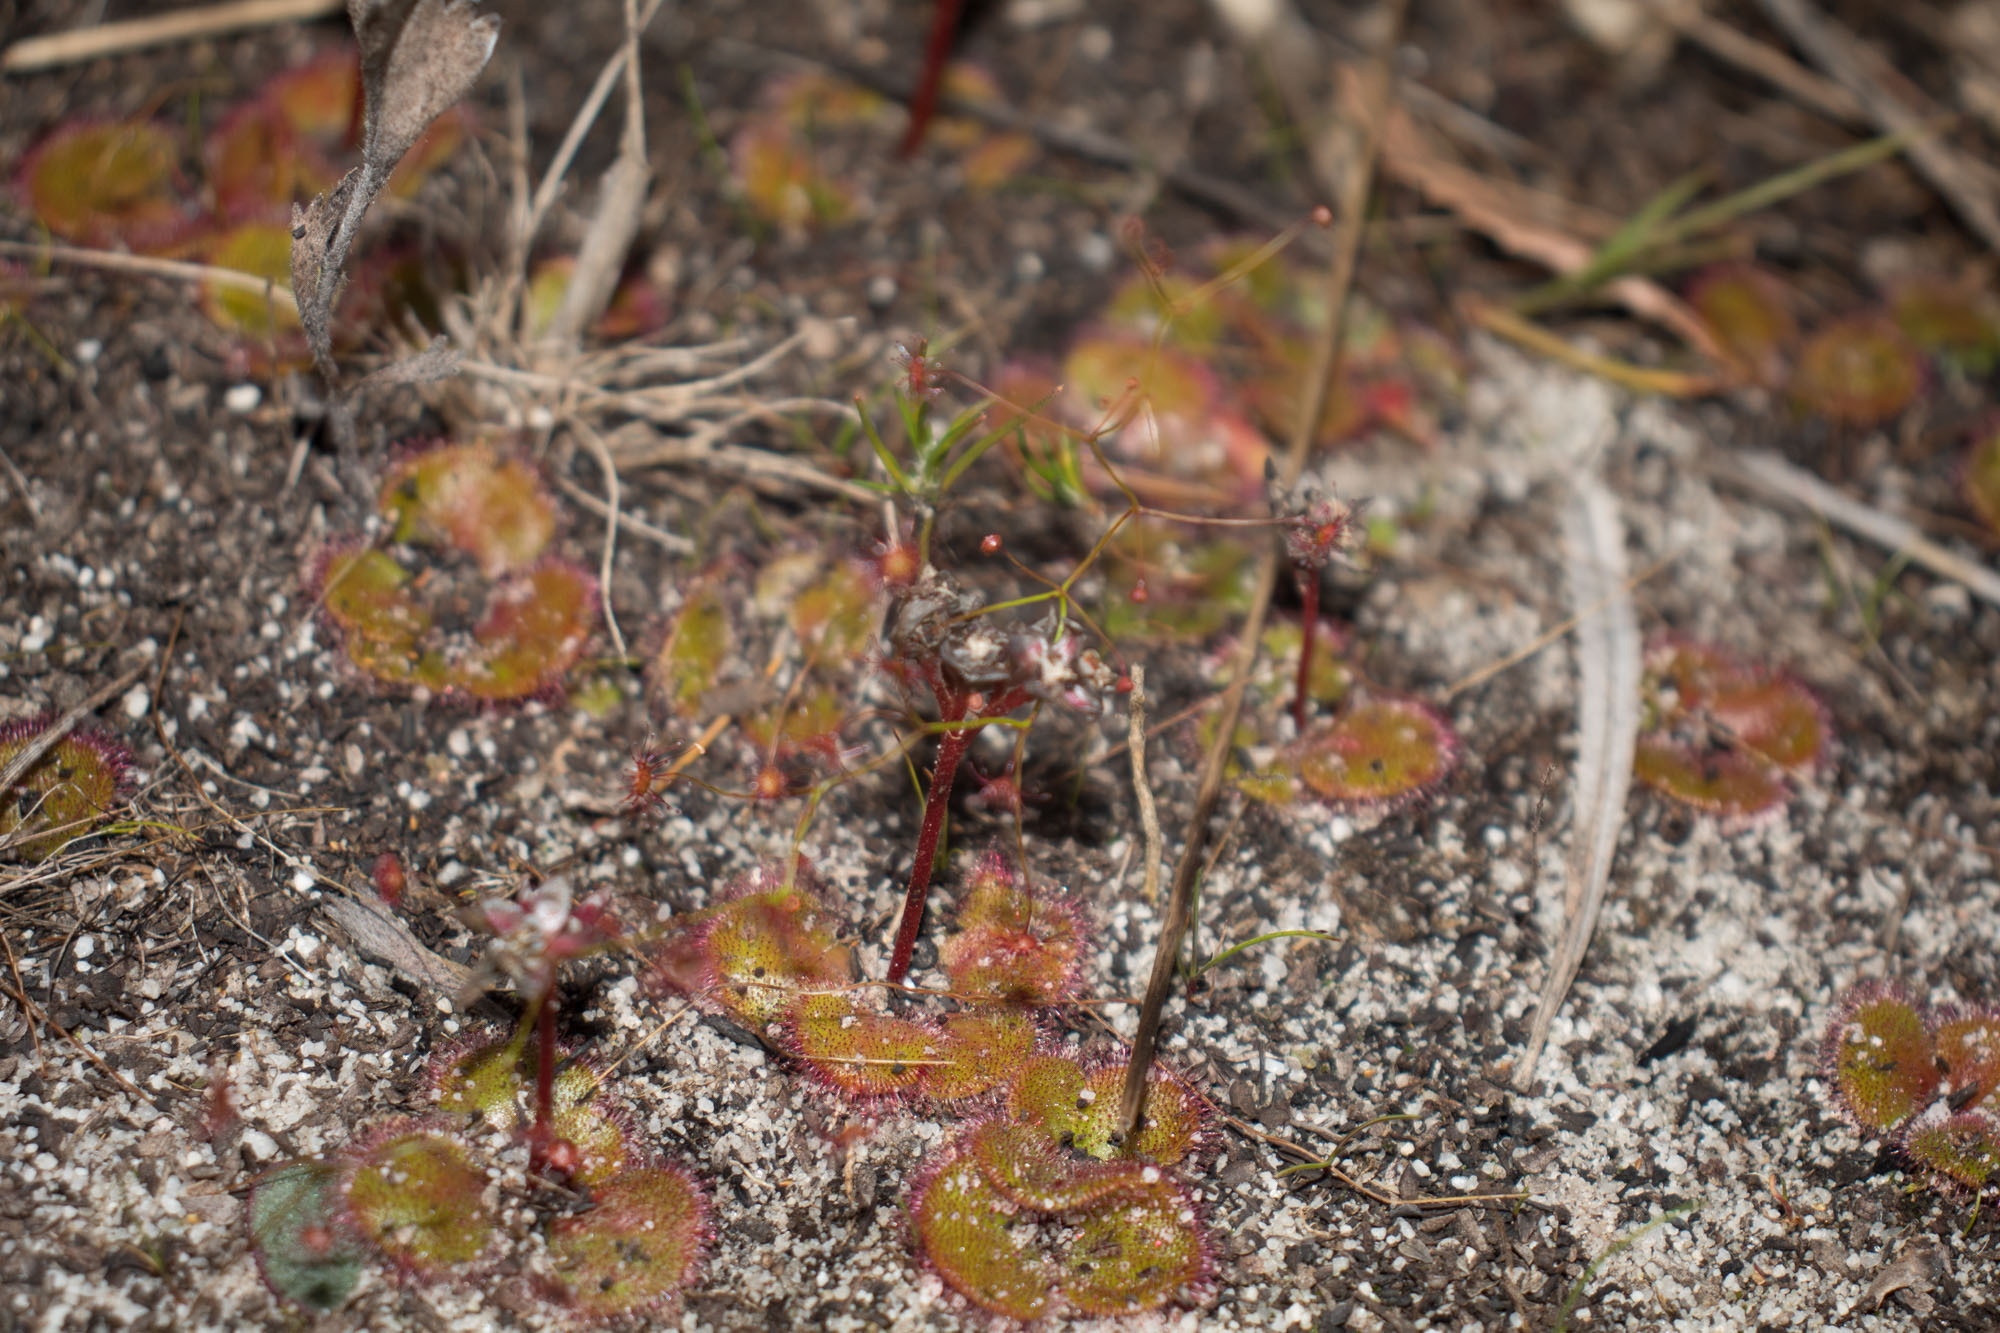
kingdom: Plantae
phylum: Tracheophyta
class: Magnoliopsida
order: Caryophyllales
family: Droseraceae
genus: Drosera
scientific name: Drosera erythrorhiza
